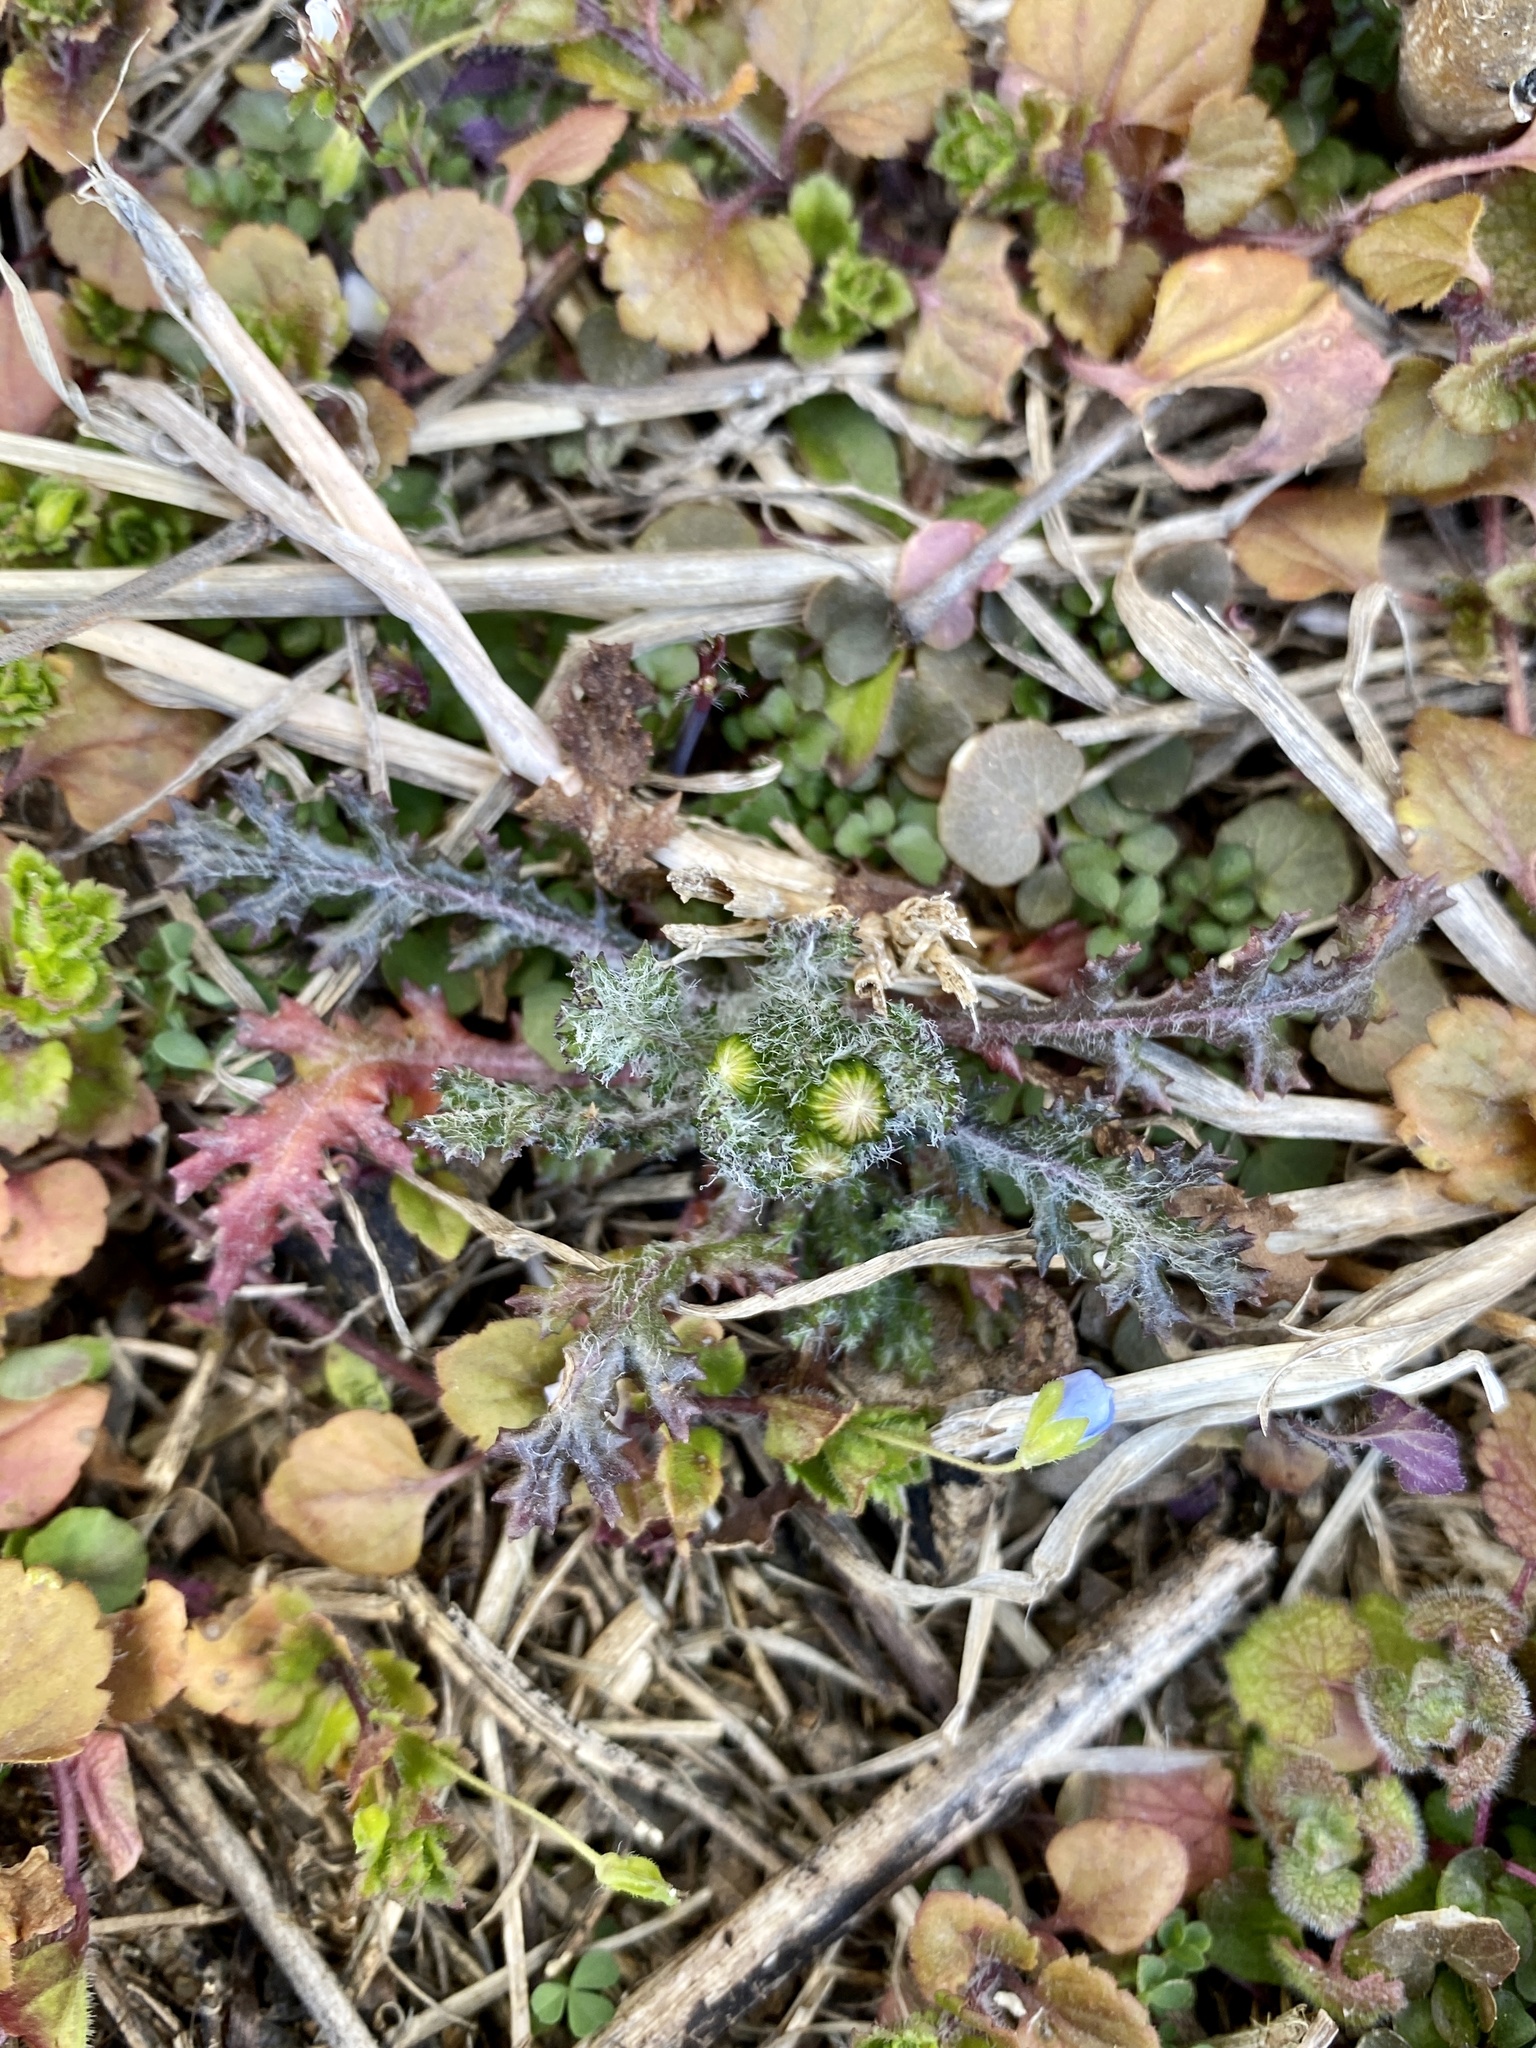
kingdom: Plantae
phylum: Tracheophyta
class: Magnoliopsida
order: Asterales
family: Asteraceae
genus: Senecio
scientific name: Senecio vulgaris
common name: Old-man-in-the-spring
